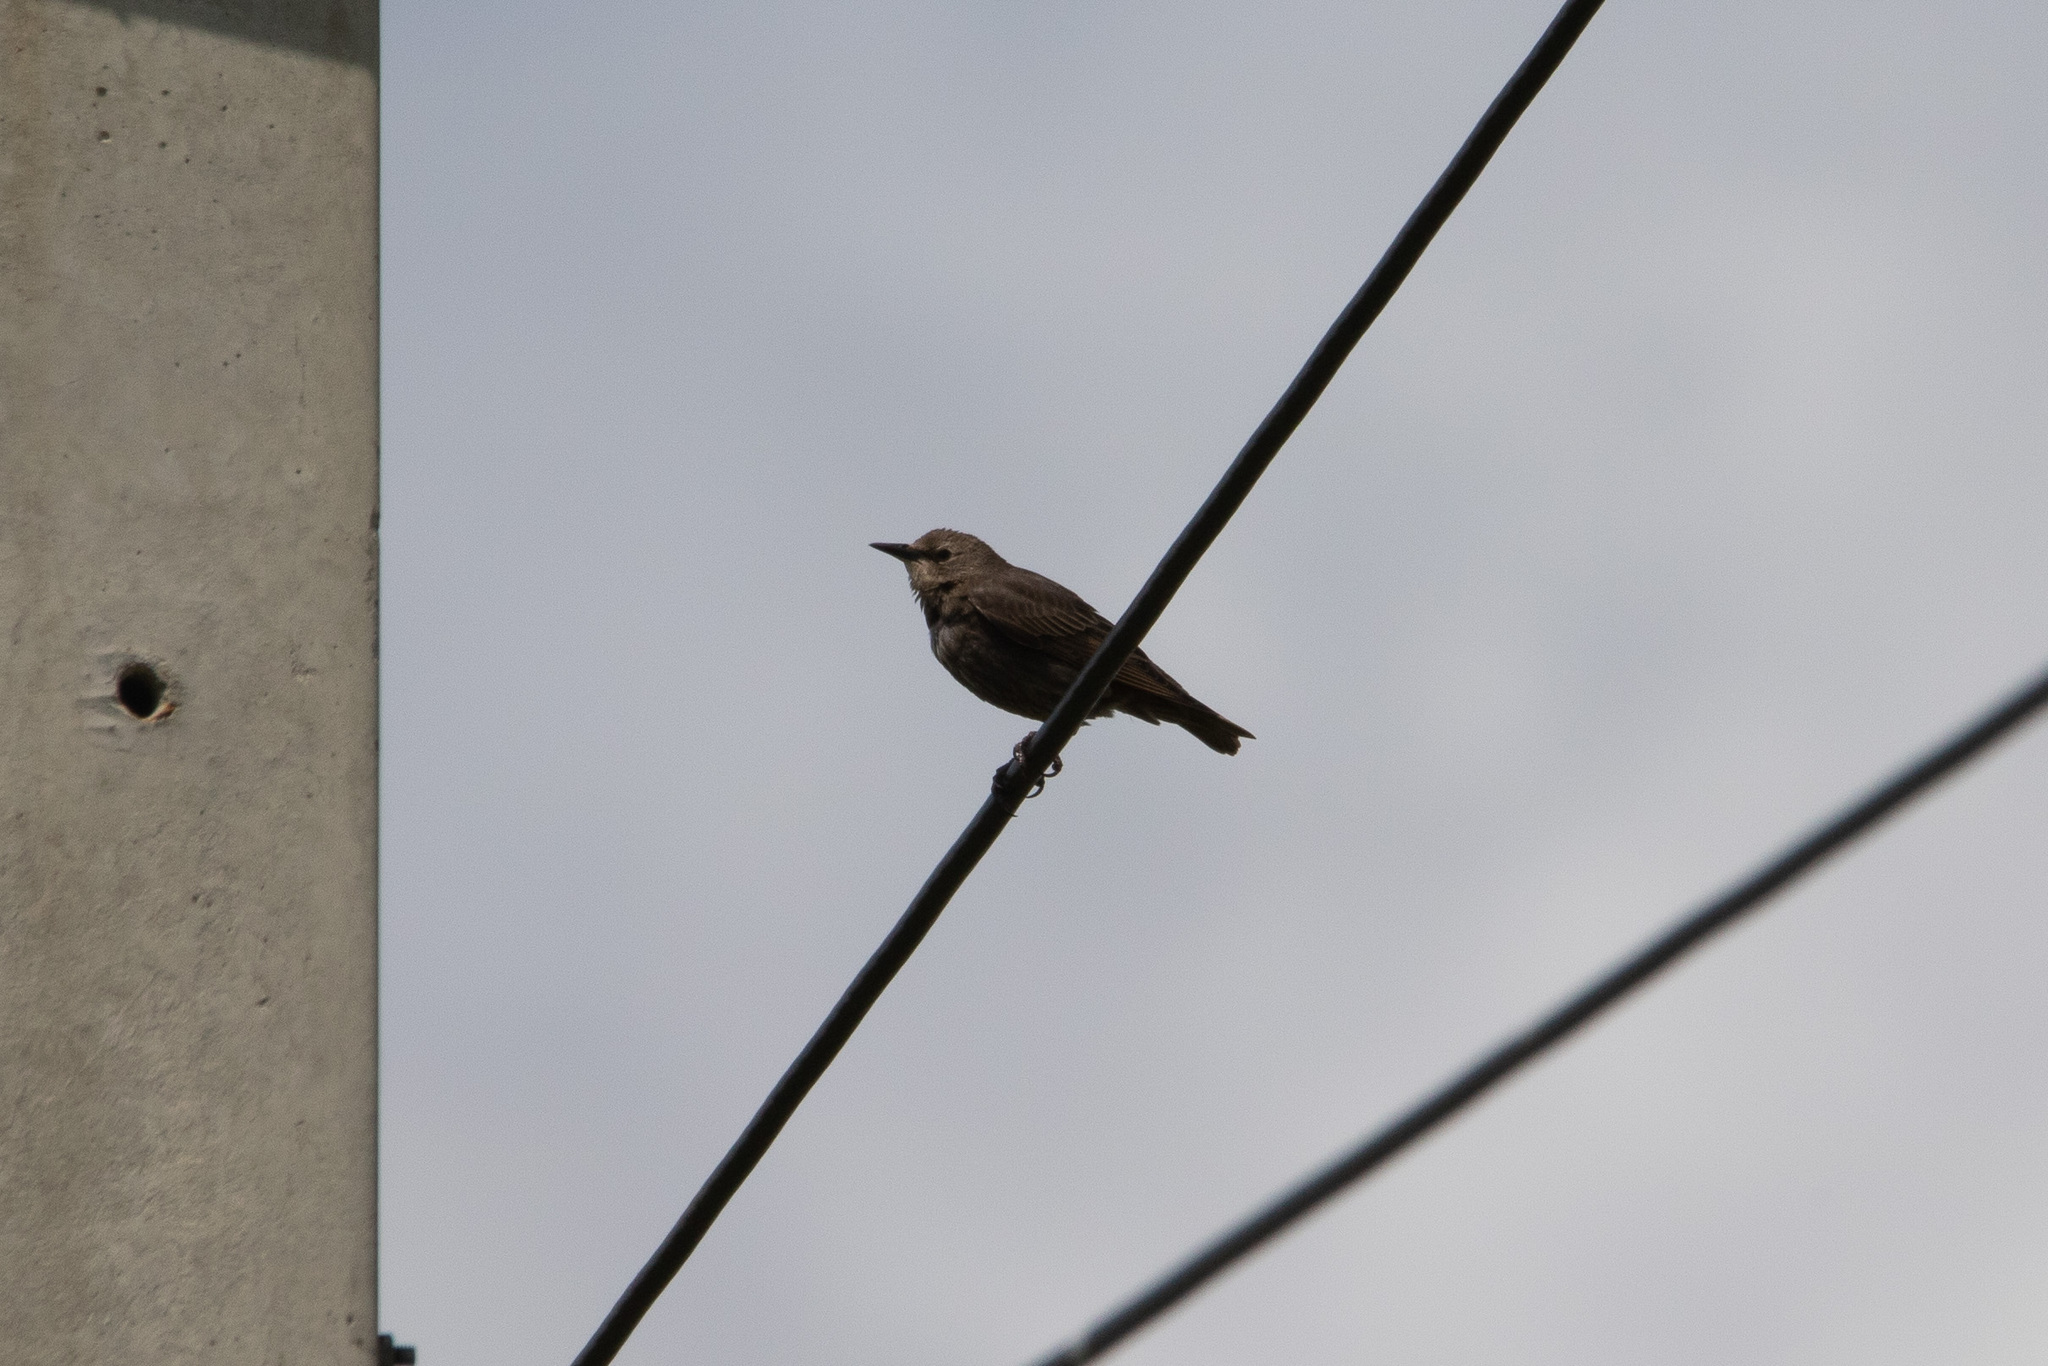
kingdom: Animalia
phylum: Chordata
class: Aves
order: Passeriformes
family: Sturnidae
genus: Sturnus
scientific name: Sturnus vulgaris
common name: Common starling
